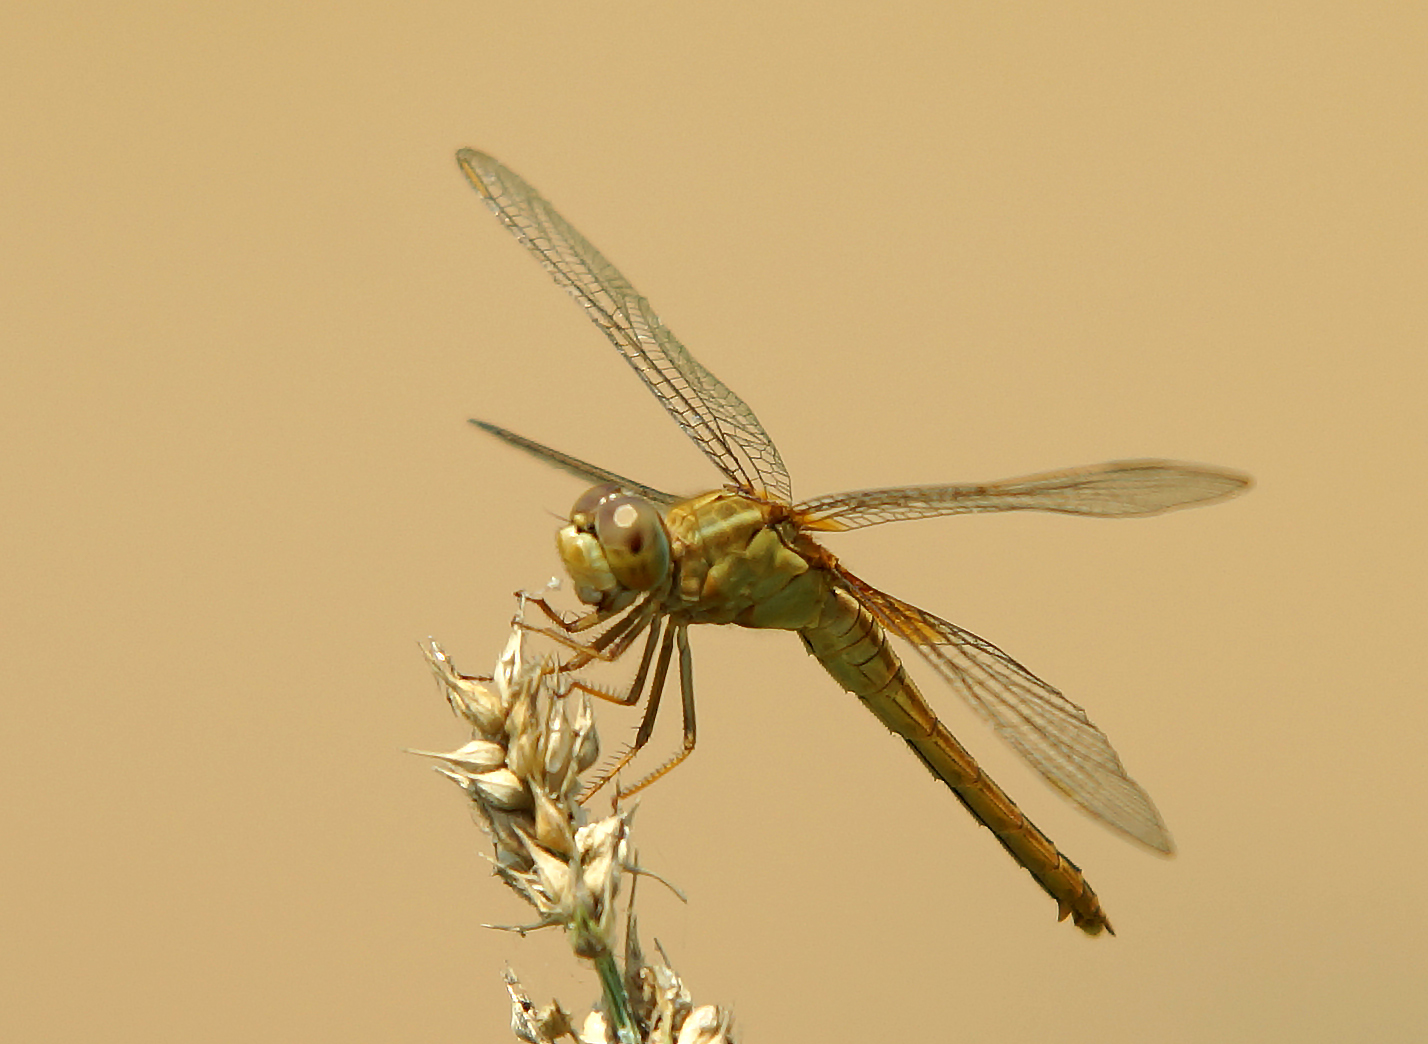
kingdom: Animalia
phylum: Arthropoda
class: Insecta
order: Odonata
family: Libellulidae
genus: Crocothemis
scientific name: Crocothemis servilia
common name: Scarlet skimmer
